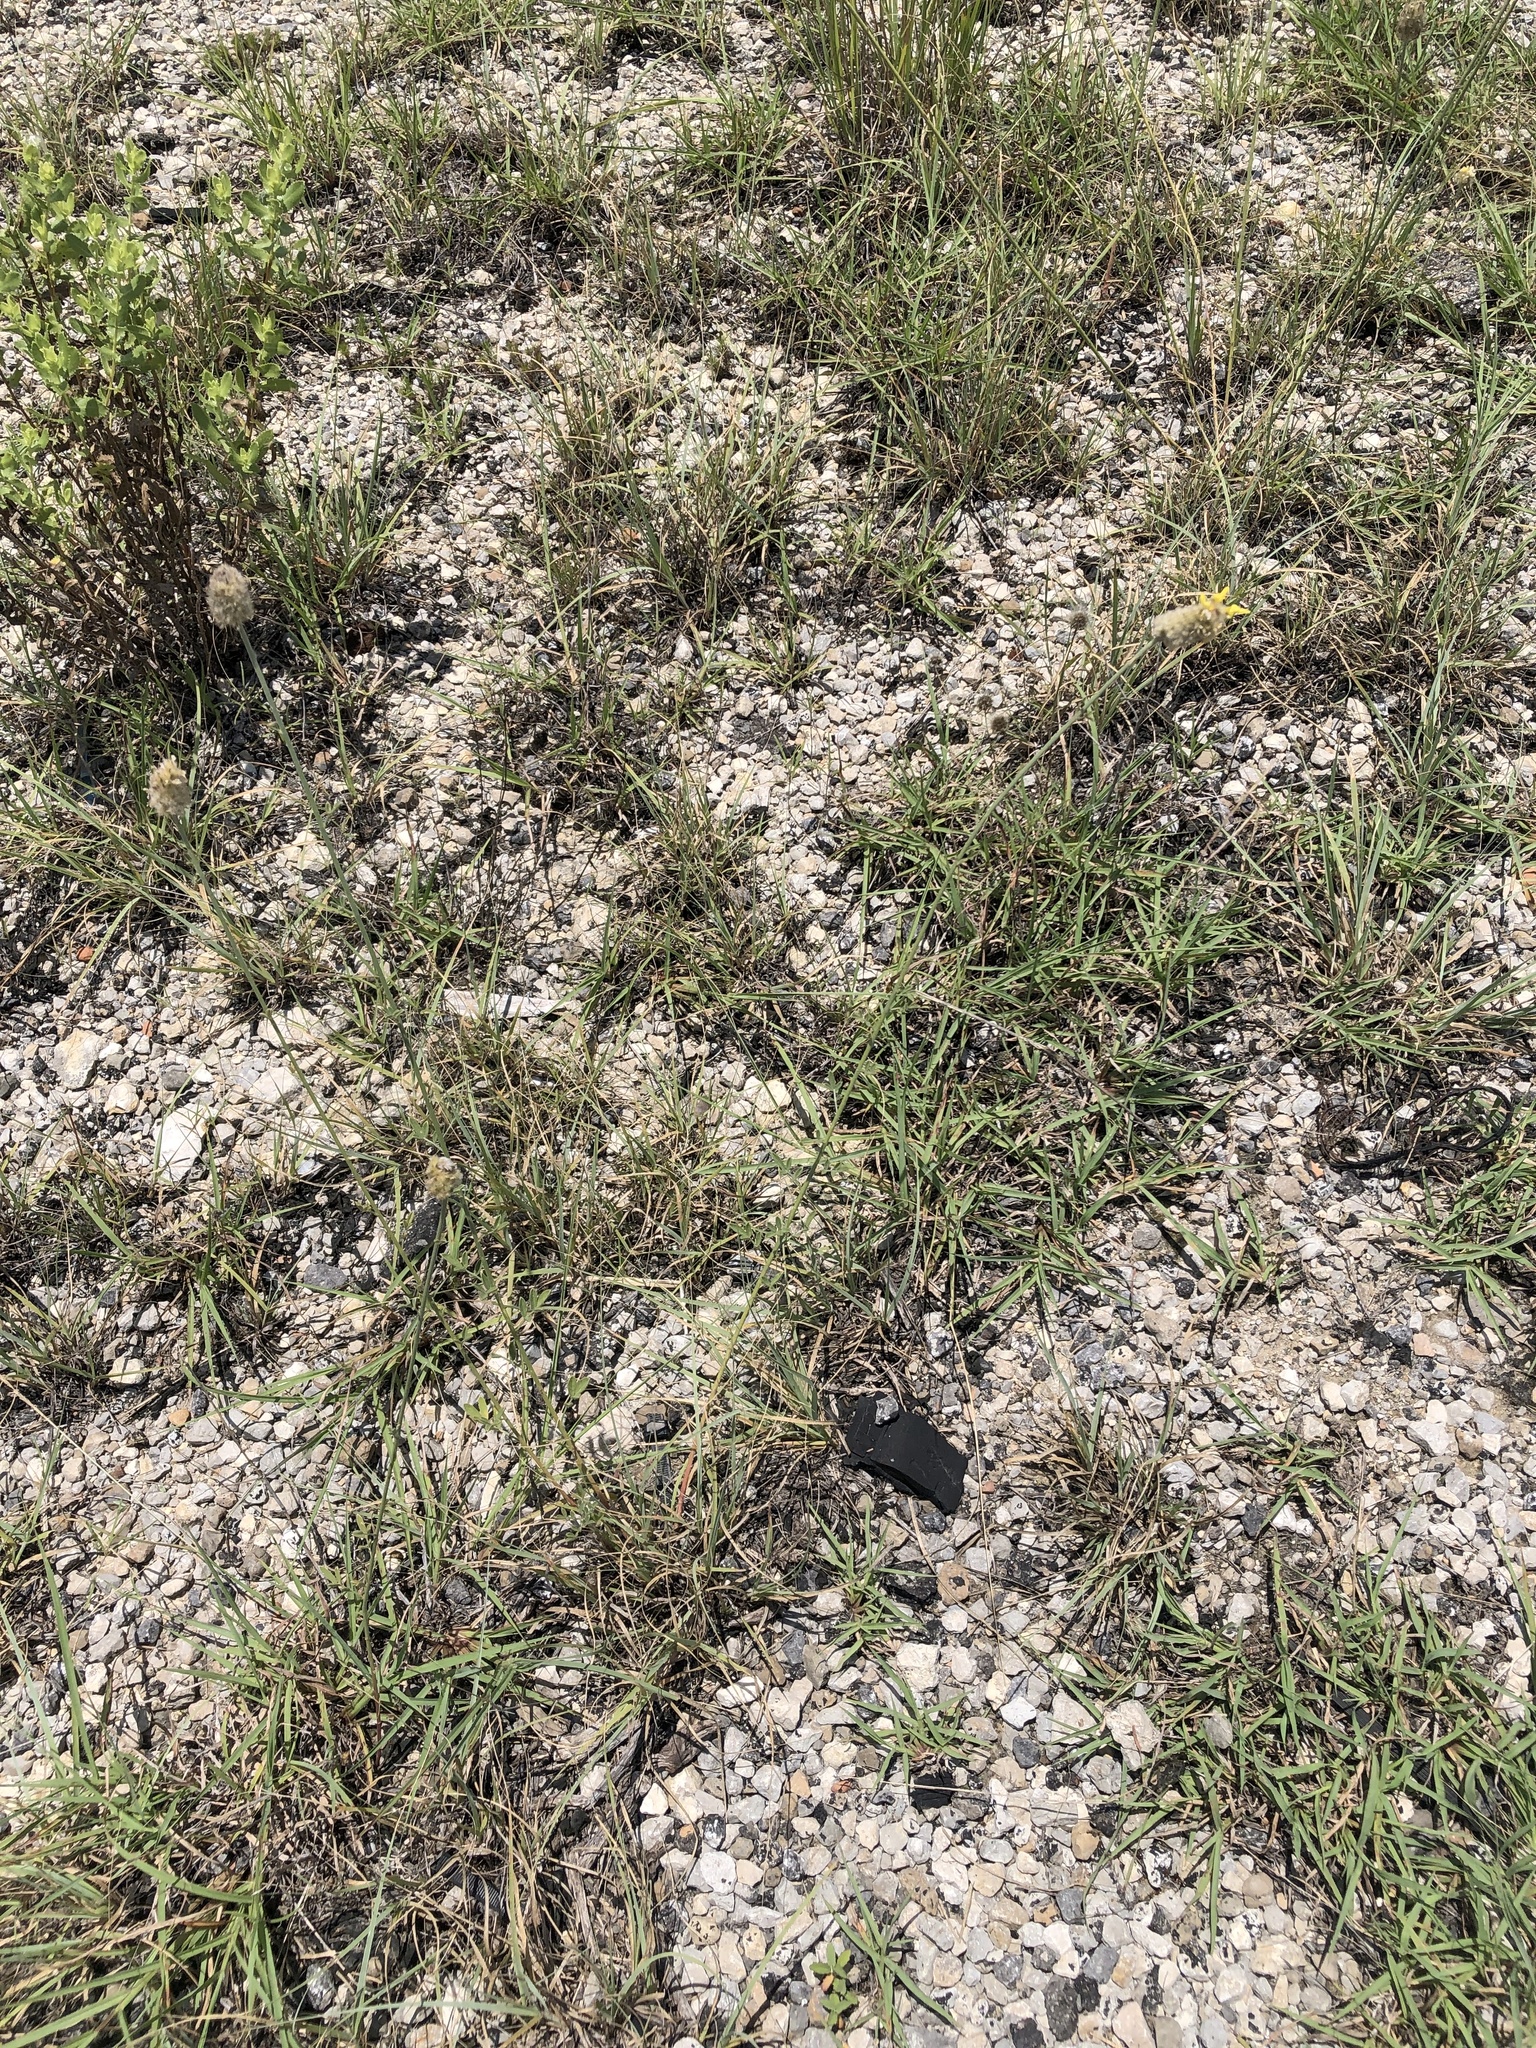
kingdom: Plantae
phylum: Tracheophyta
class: Magnoliopsida
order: Fabales
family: Fabaceae
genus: Dalea
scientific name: Dalea aurea
